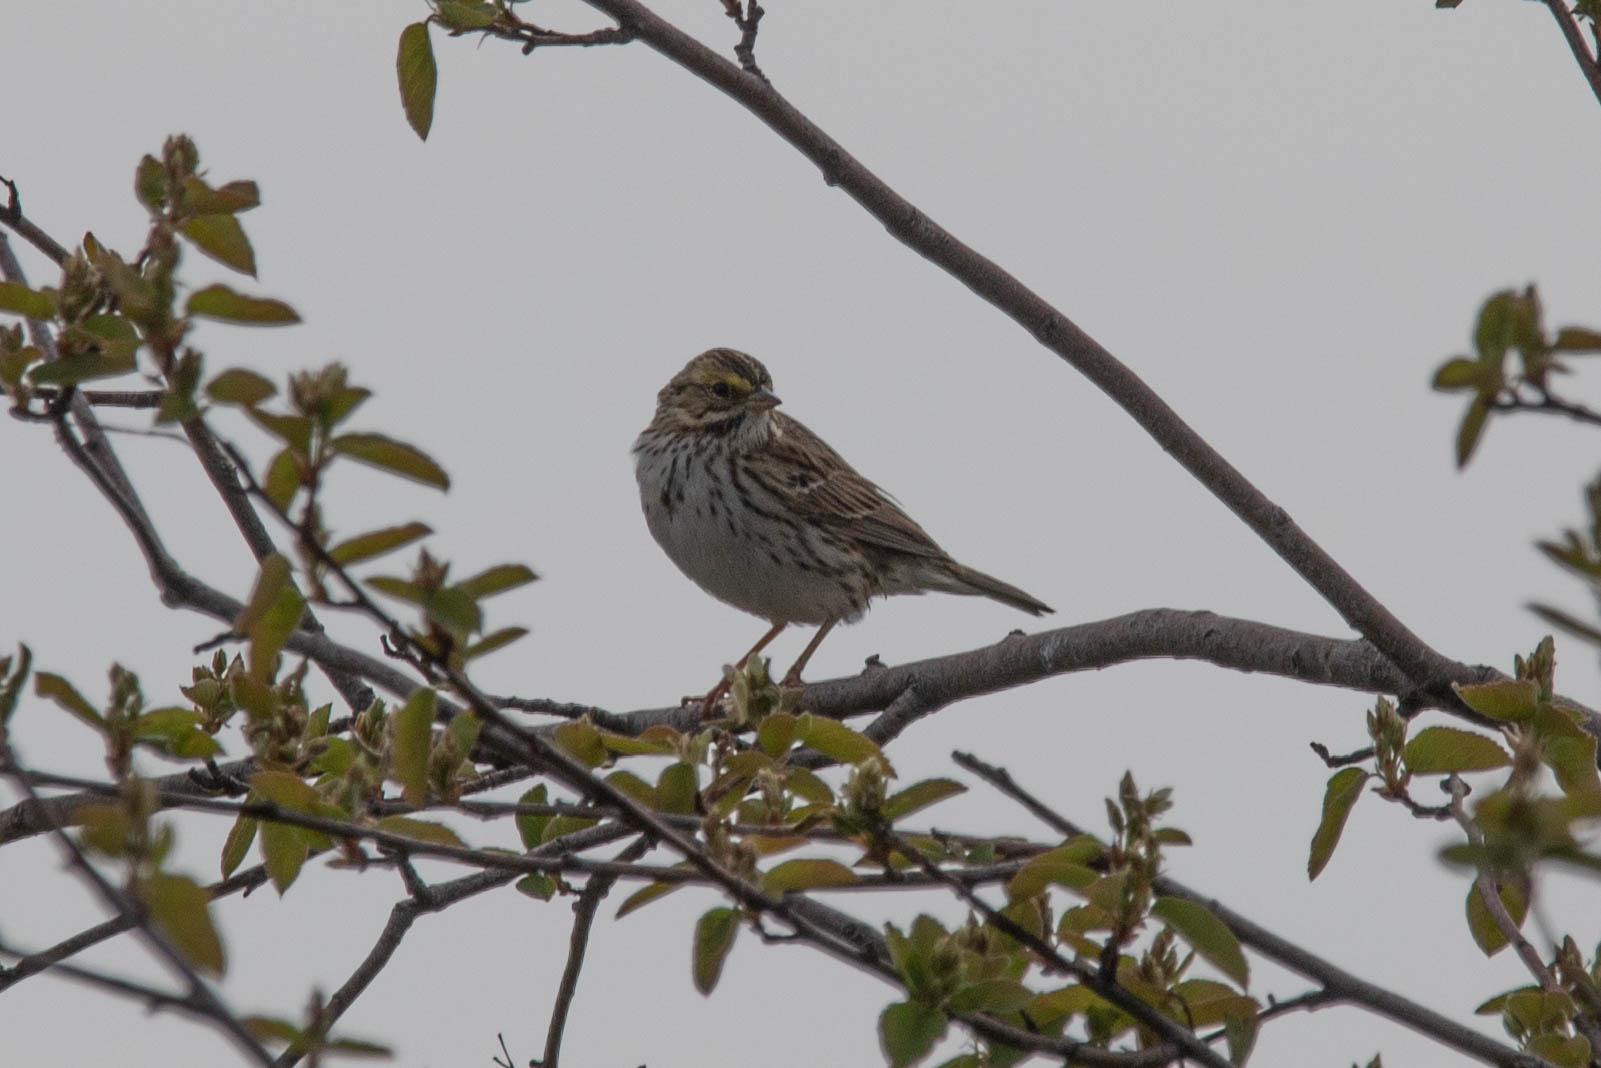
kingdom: Animalia
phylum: Chordata
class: Aves
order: Passeriformes
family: Passerellidae
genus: Passerculus
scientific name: Passerculus sandwichensis
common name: Savannah sparrow
